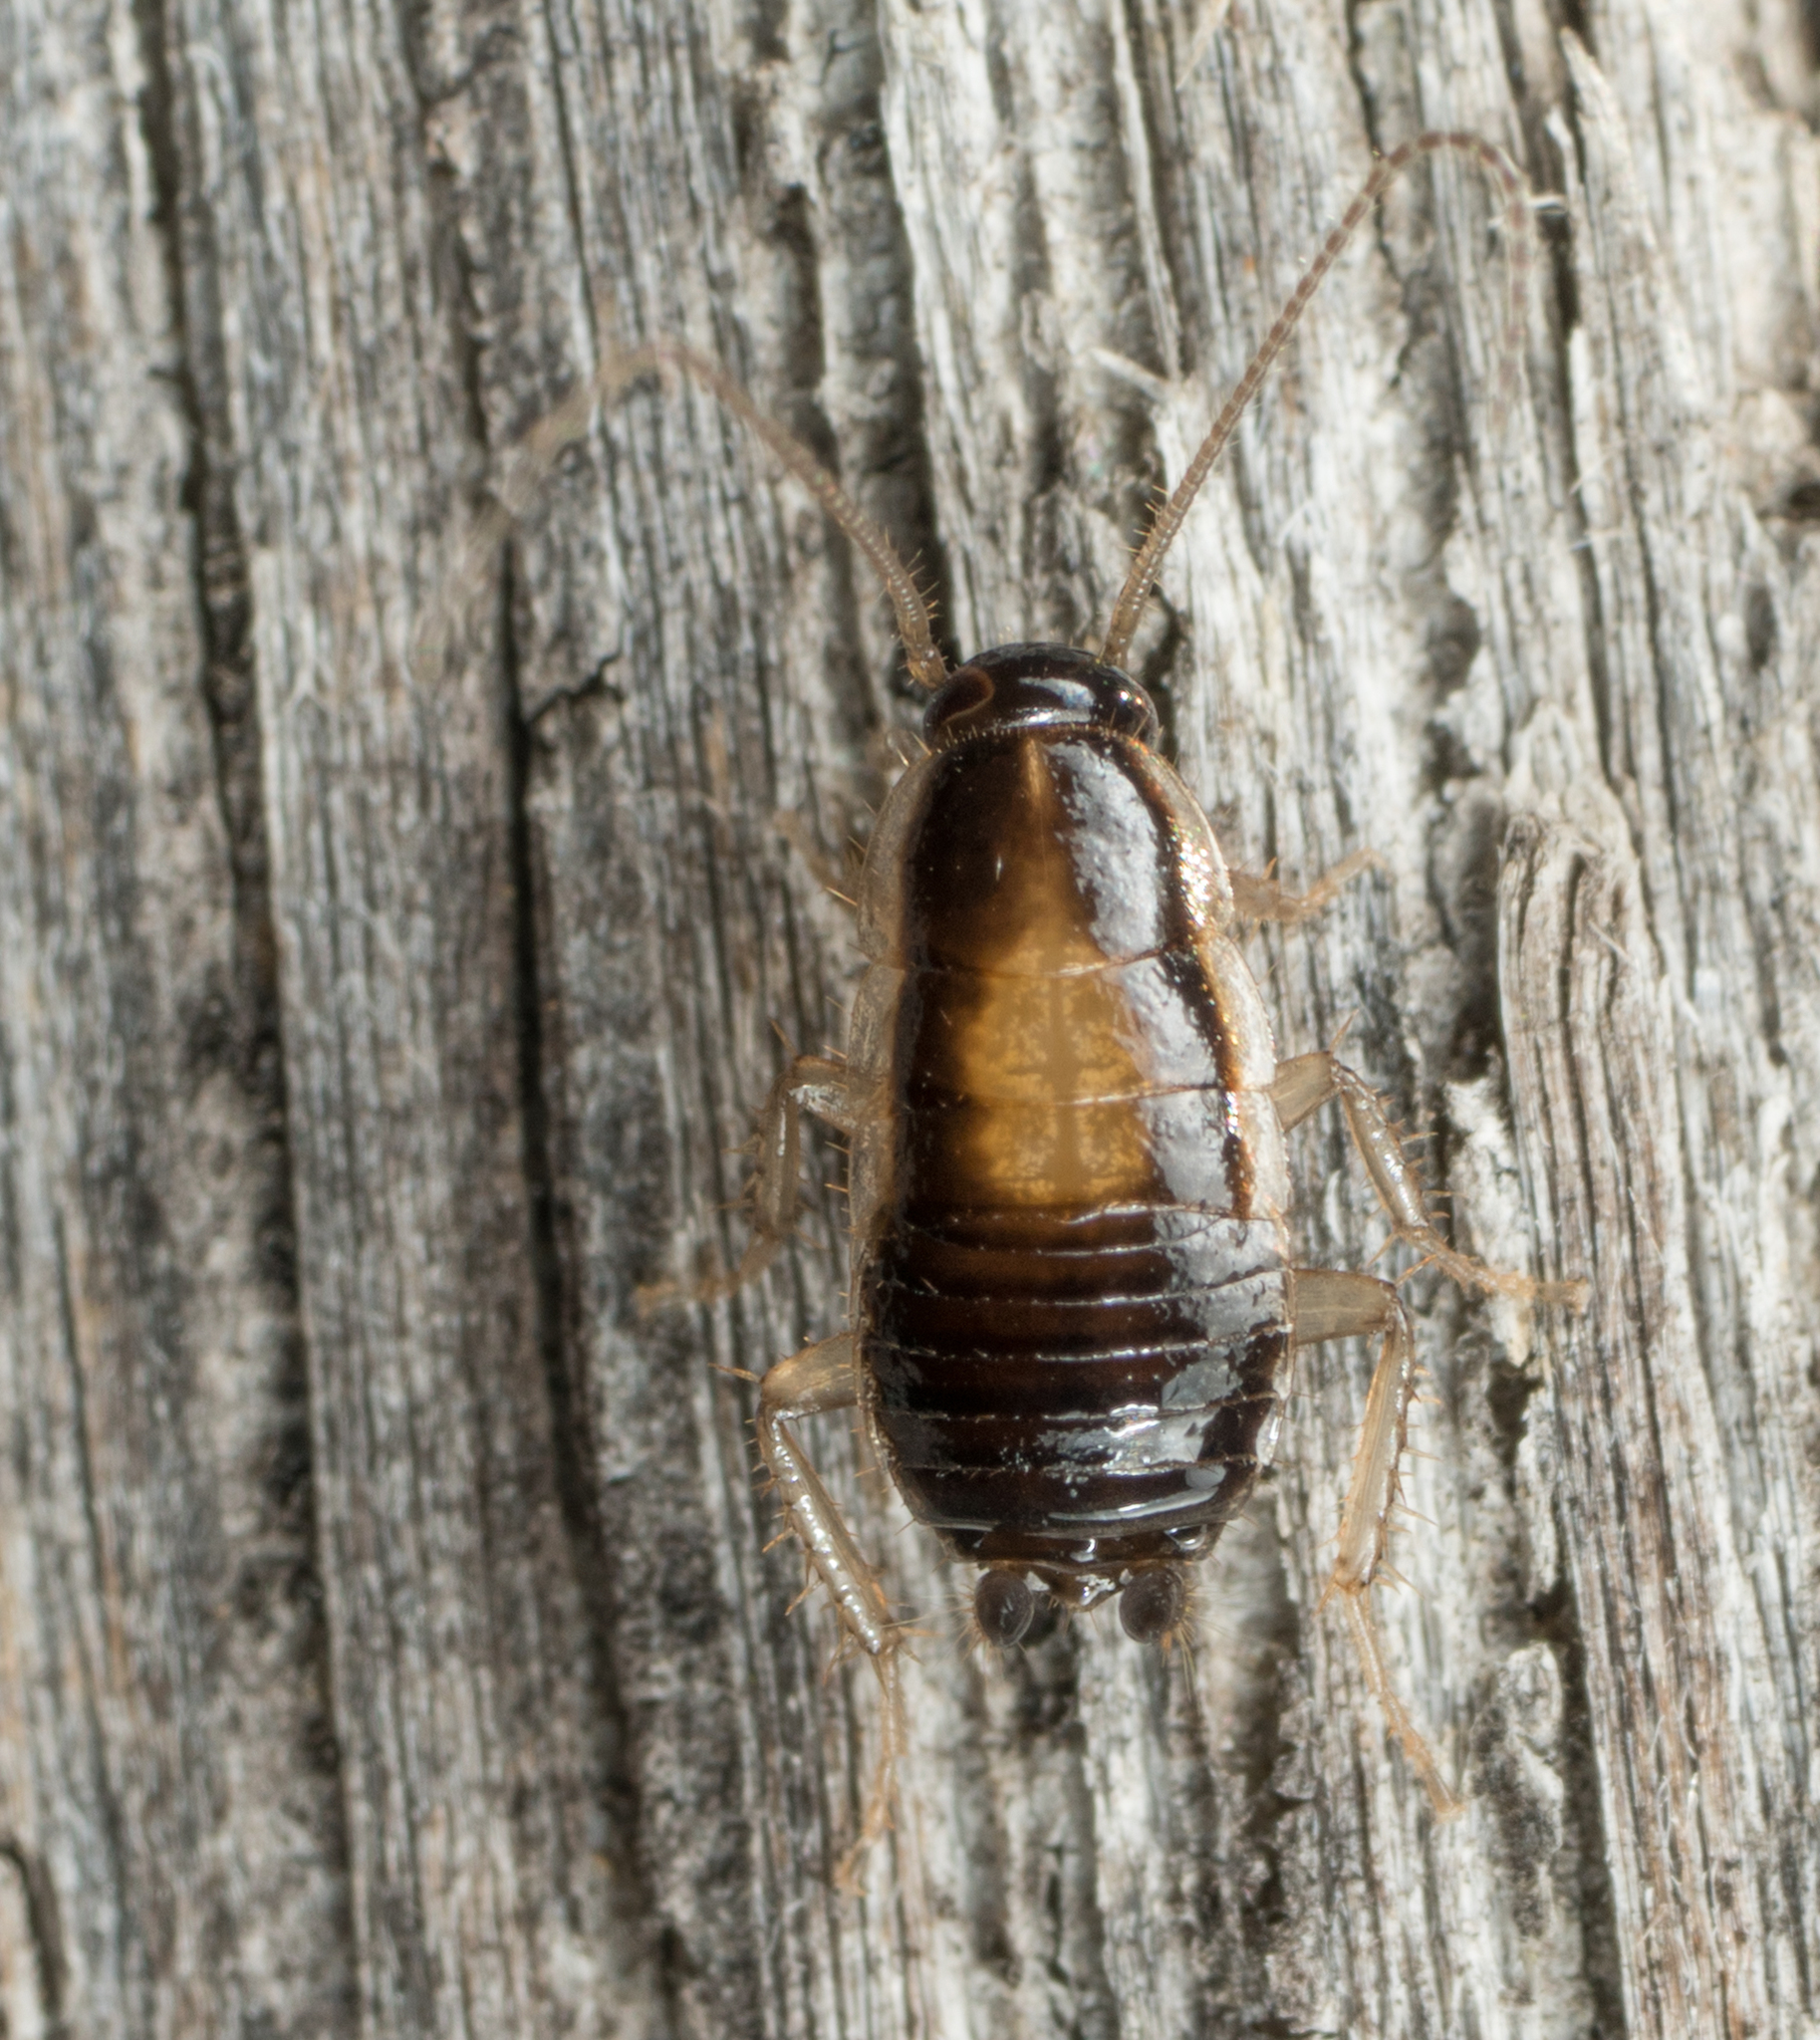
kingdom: Animalia
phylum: Arthropoda
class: Insecta
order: Blattodea
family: Ectobiidae
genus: Blattella
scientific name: Blattella asahinai
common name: Asian cockroach
